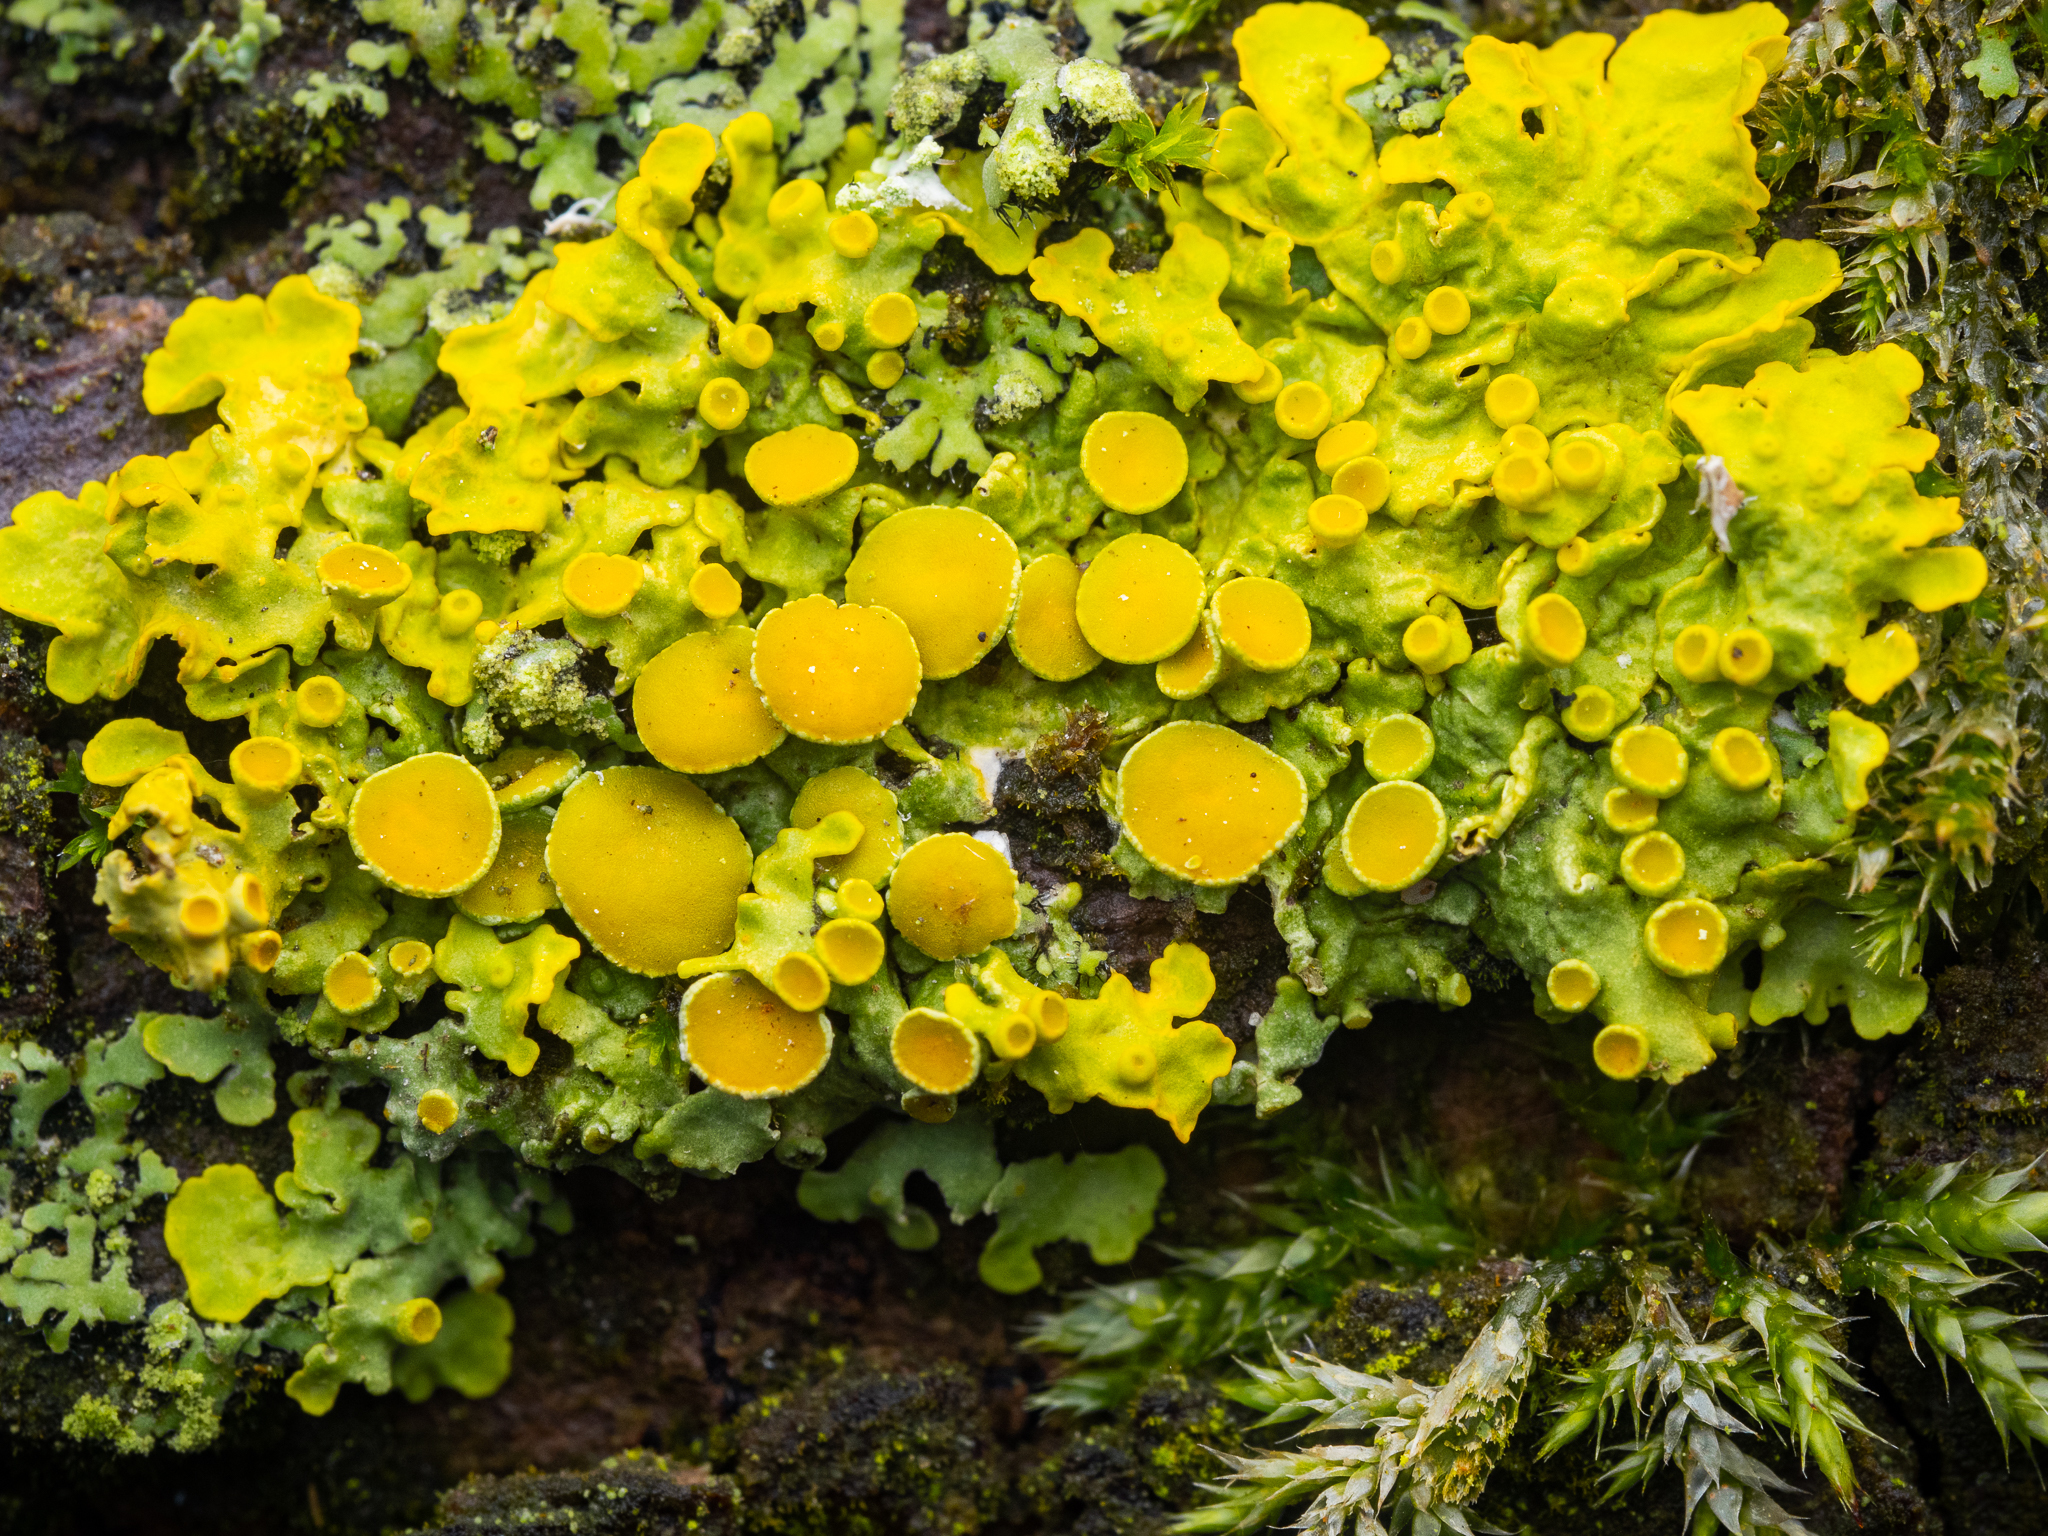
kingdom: Fungi
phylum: Ascomycota
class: Lecanoromycetes
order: Teloschistales
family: Teloschistaceae
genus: Xanthoria
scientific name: Xanthoria parietina
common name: Common orange lichen
